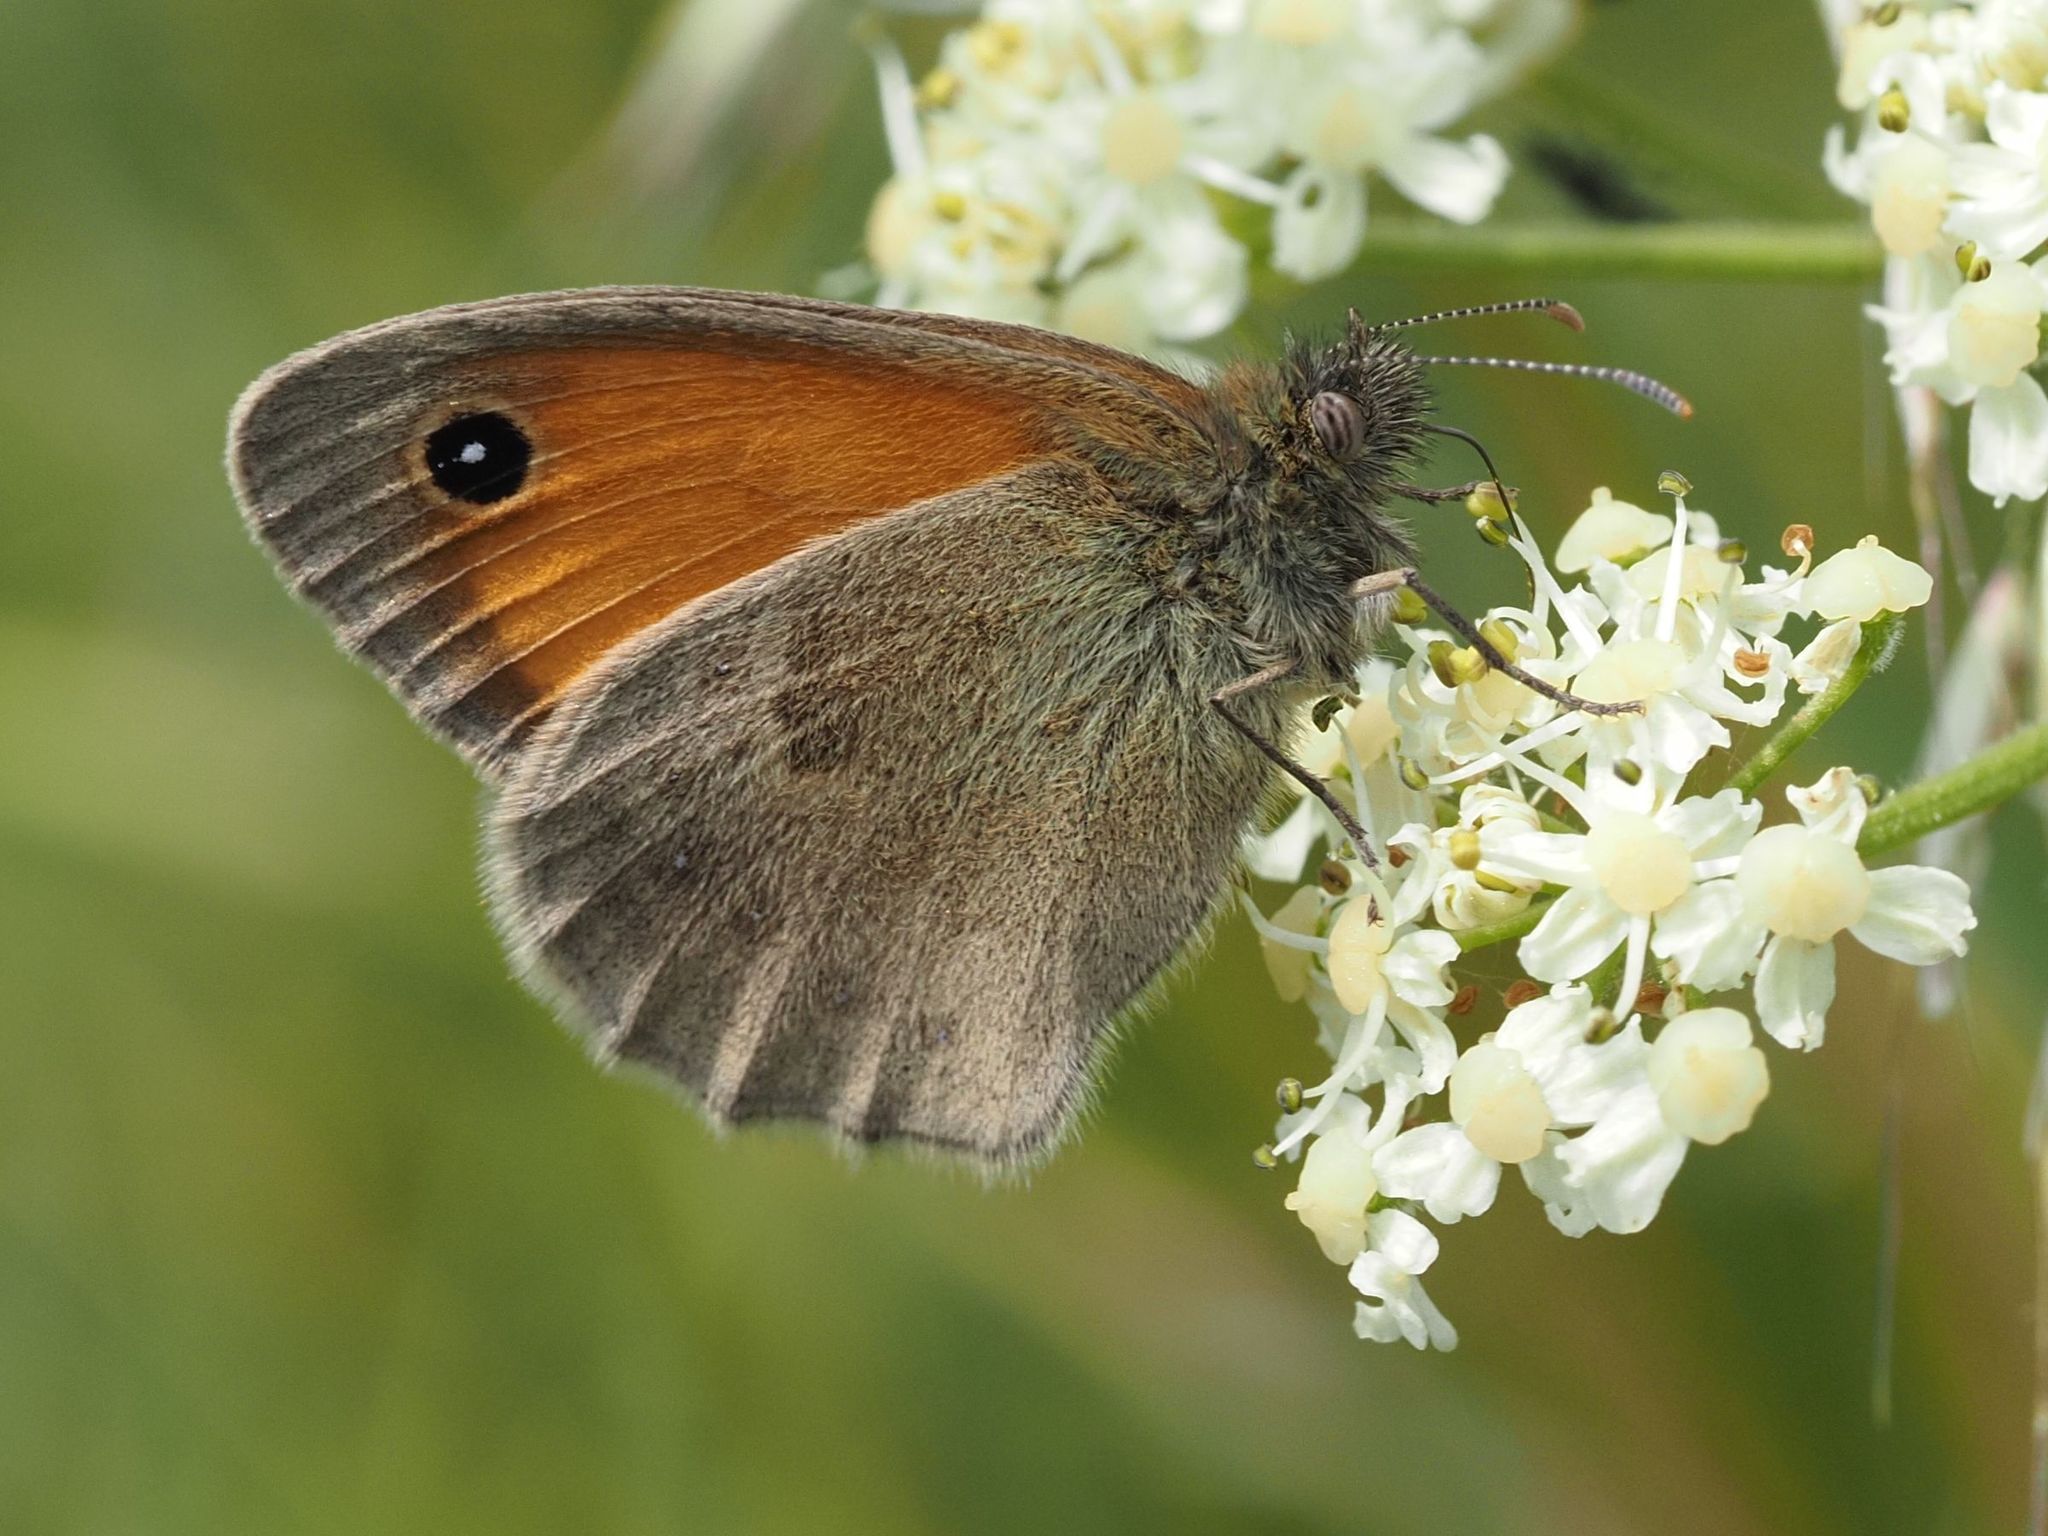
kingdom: Animalia
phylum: Arthropoda
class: Insecta
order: Lepidoptera
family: Nymphalidae
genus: Coenonympha
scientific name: Coenonympha pamphilus
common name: Small heath
